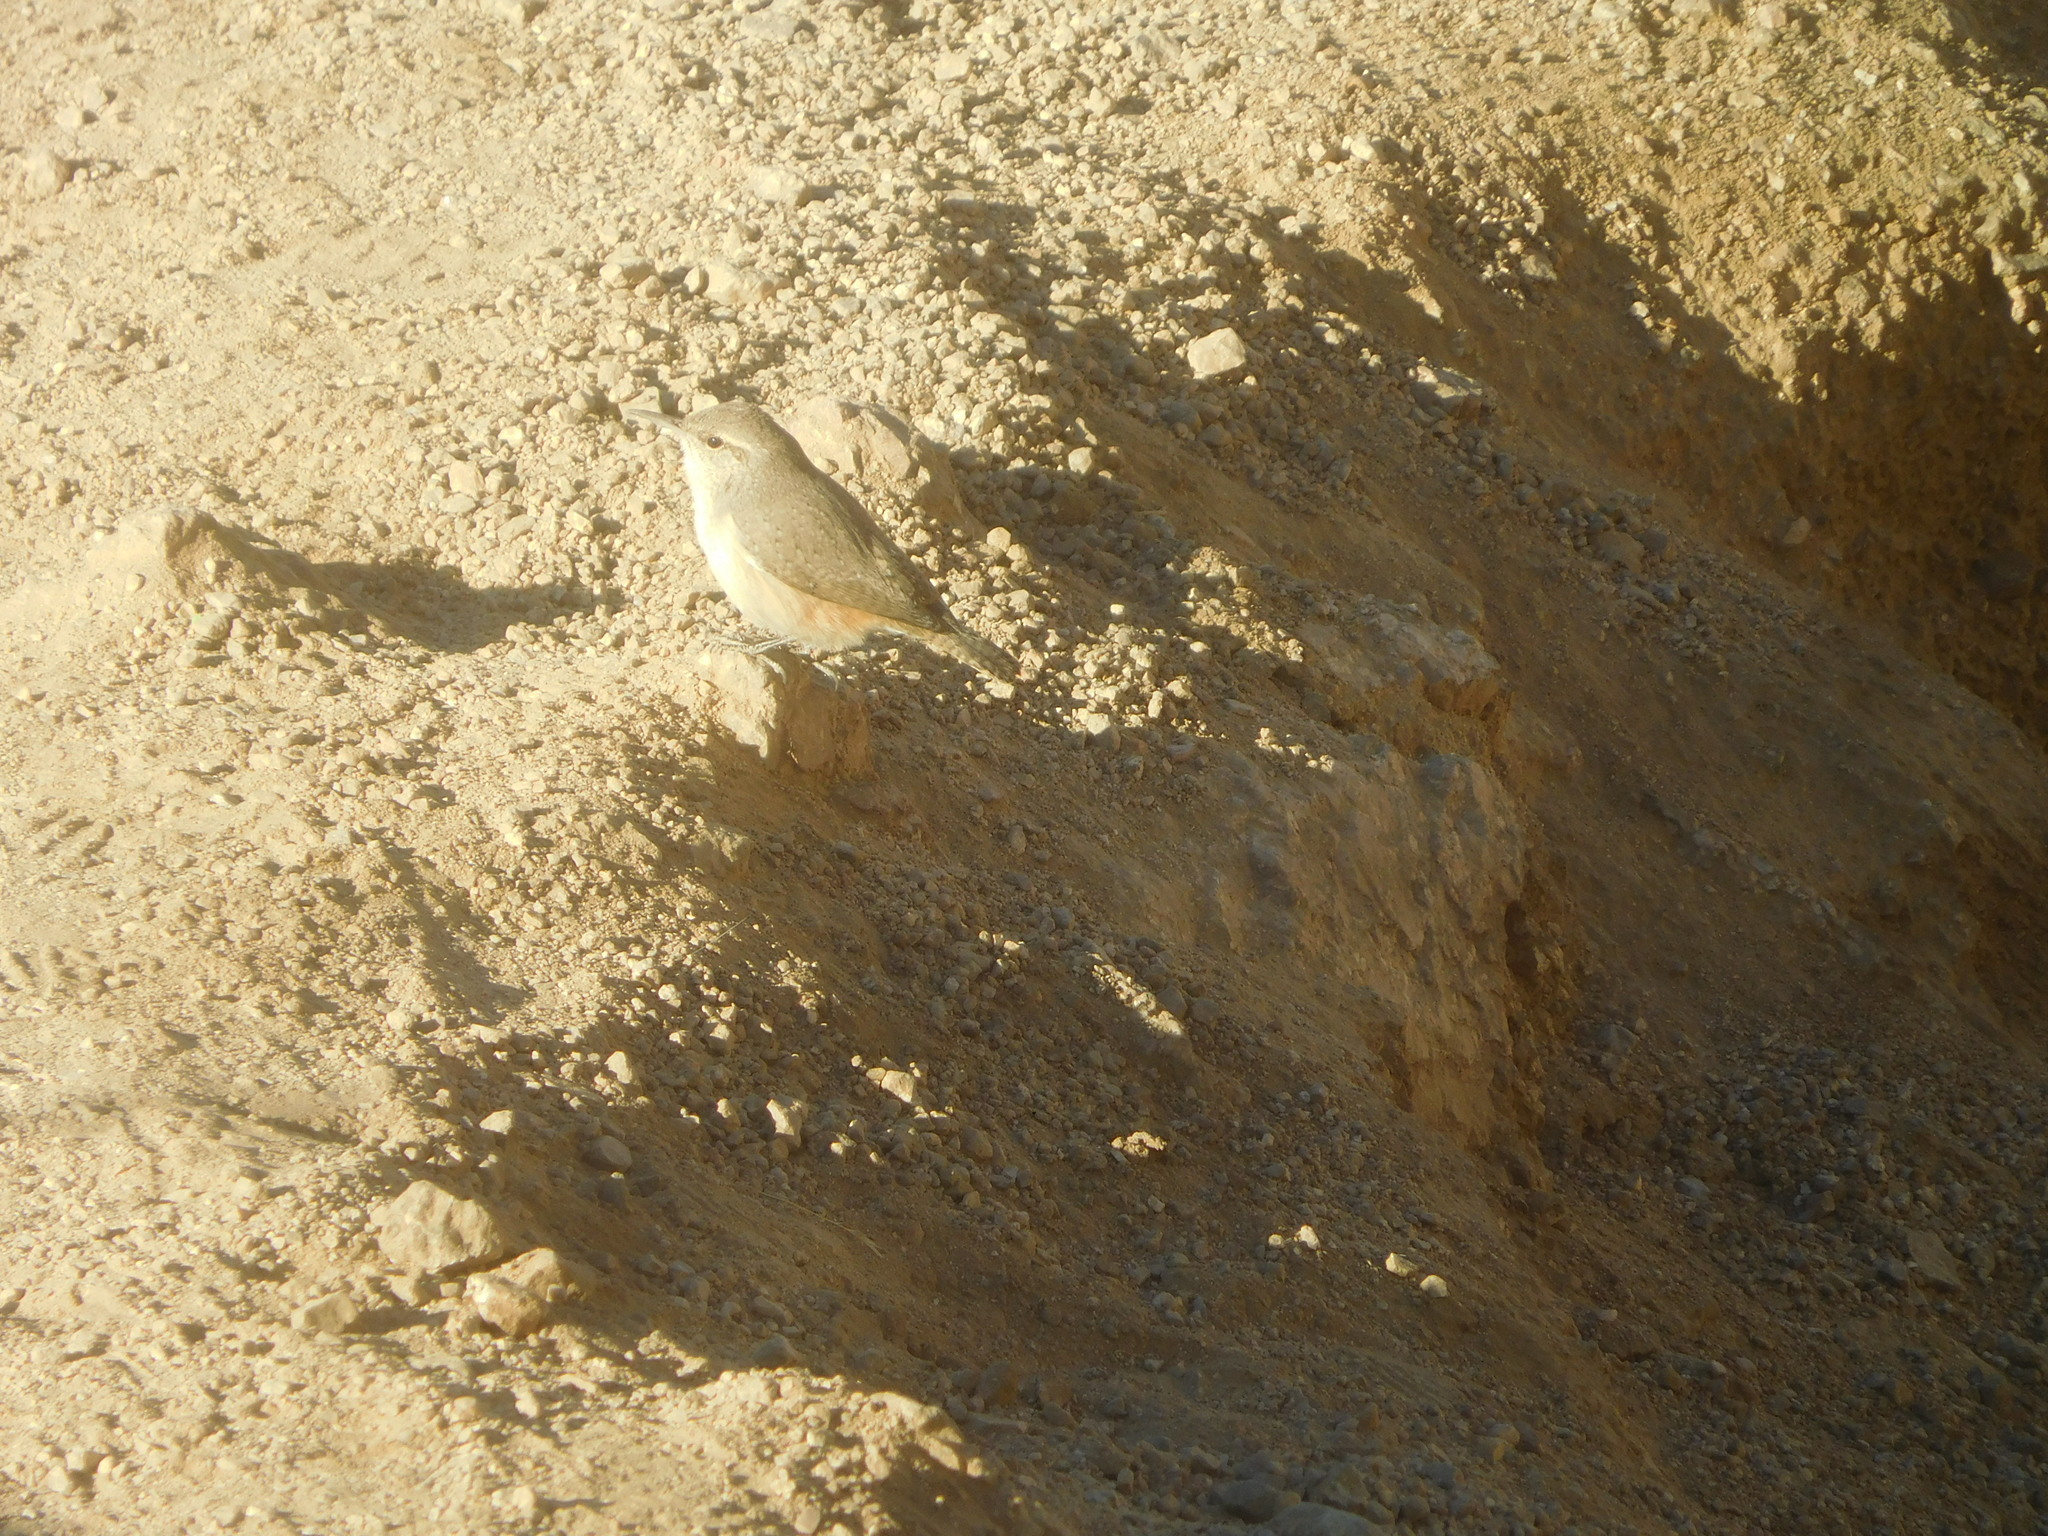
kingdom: Animalia
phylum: Chordata
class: Aves
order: Passeriformes
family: Troglodytidae
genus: Salpinctes
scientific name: Salpinctes obsoletus
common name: Rock wren
